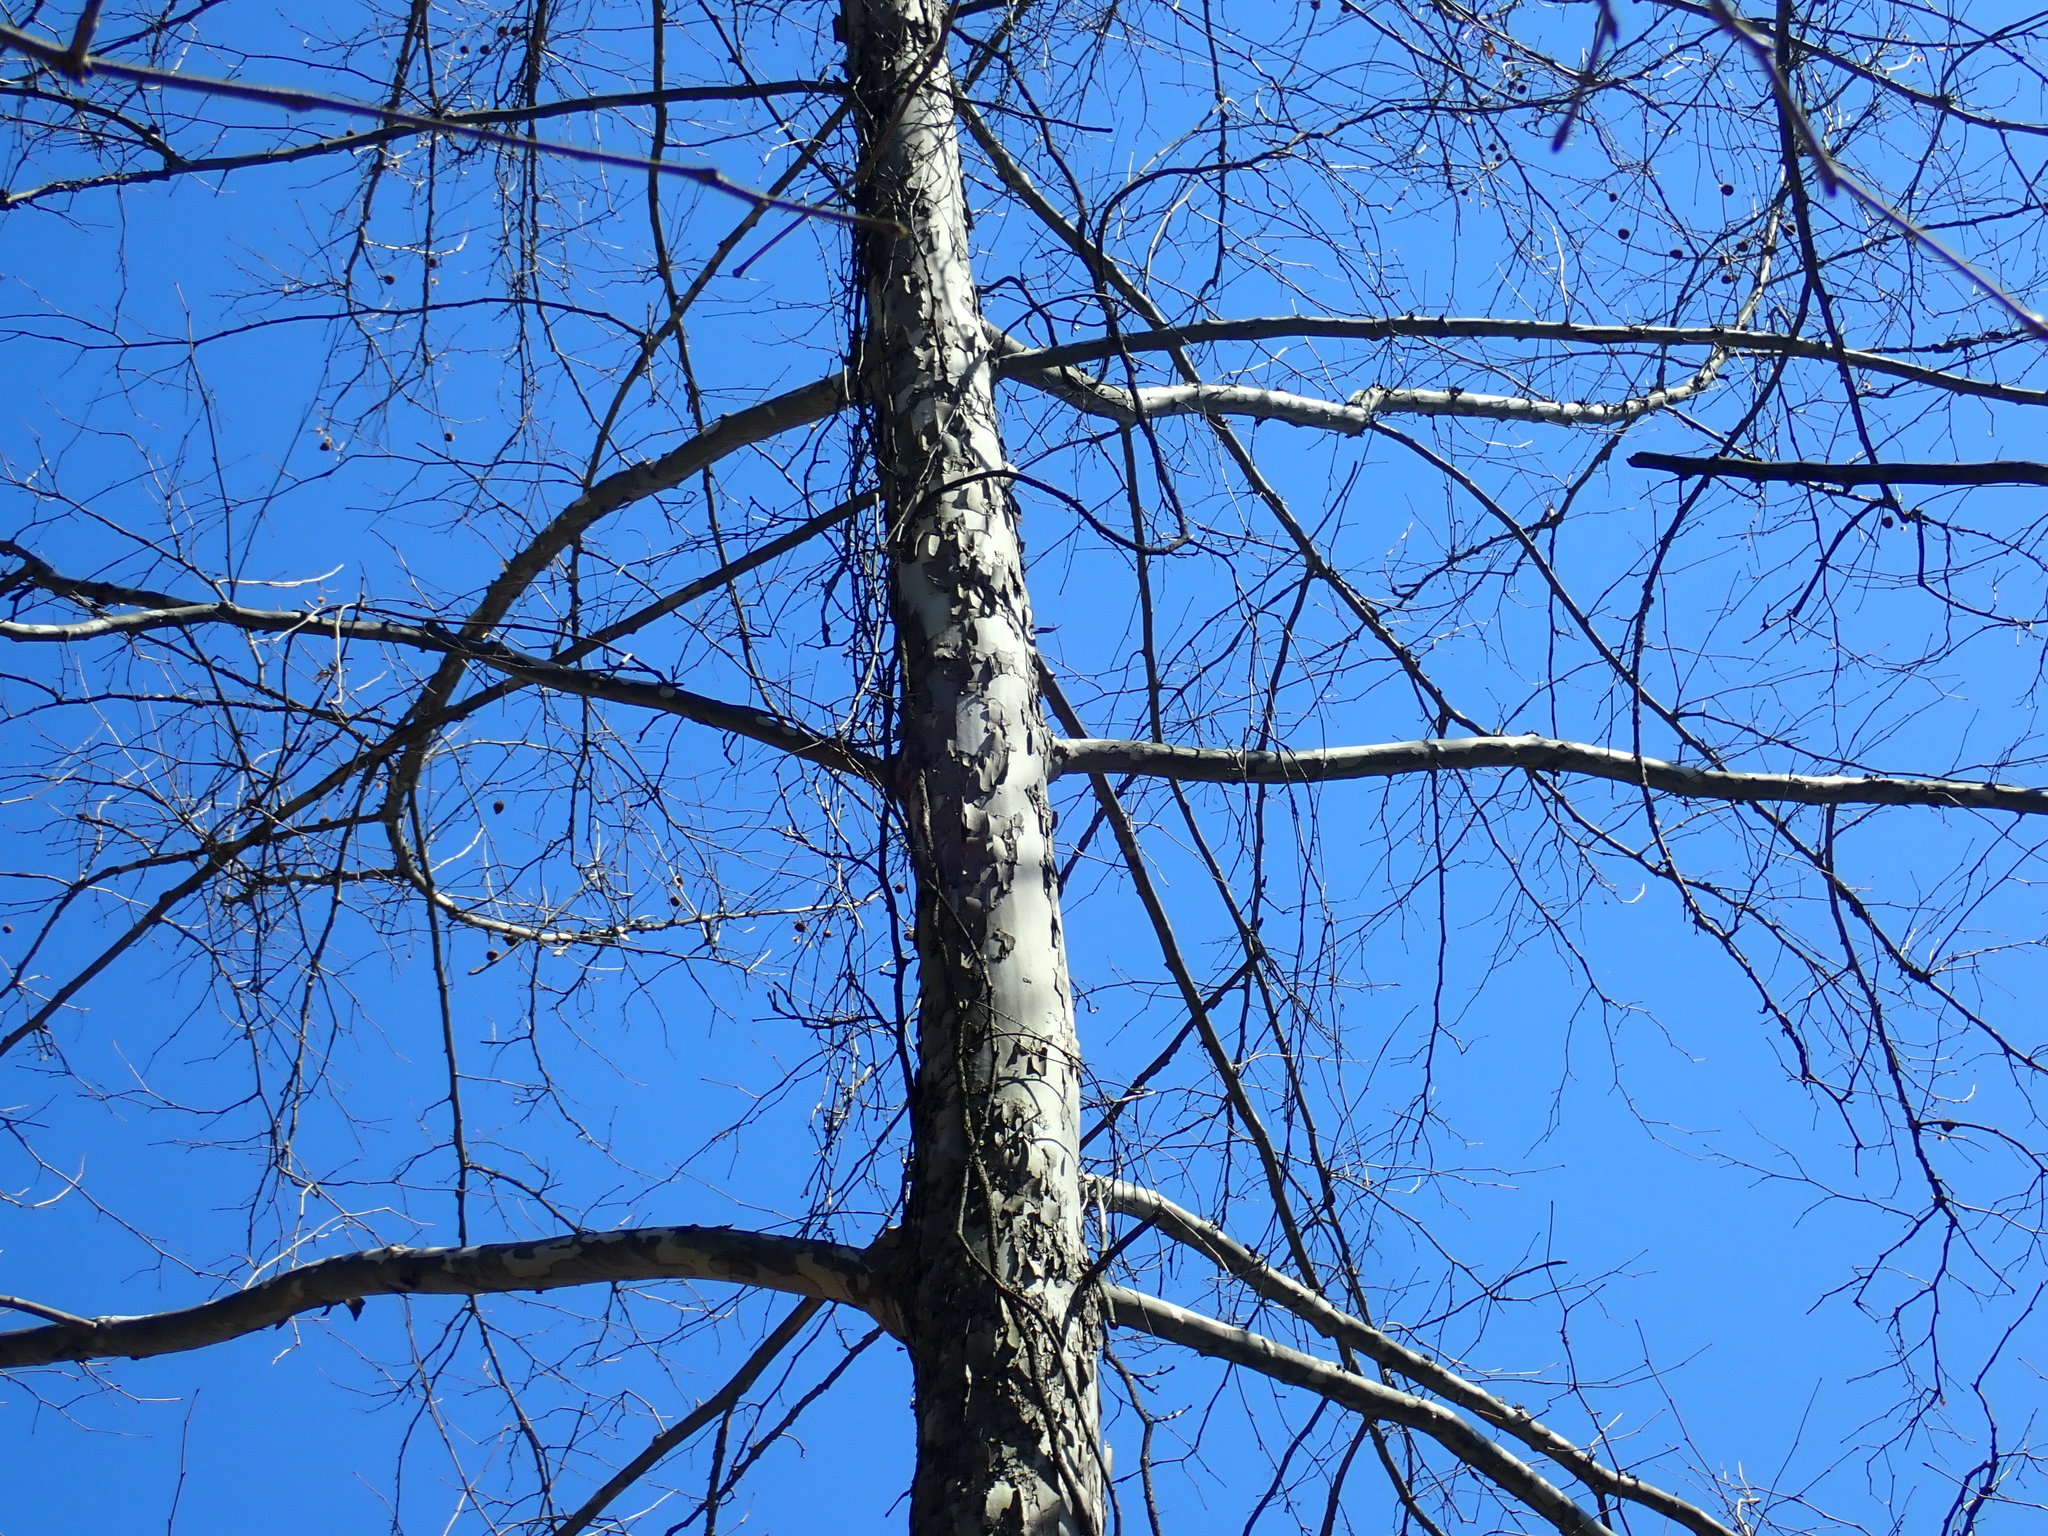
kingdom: Plantae
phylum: Tracheophyta
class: Magnoliopsida
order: Proteales
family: Platanaceae
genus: Platanus
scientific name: Platanus occidentalis
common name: American sycamore
